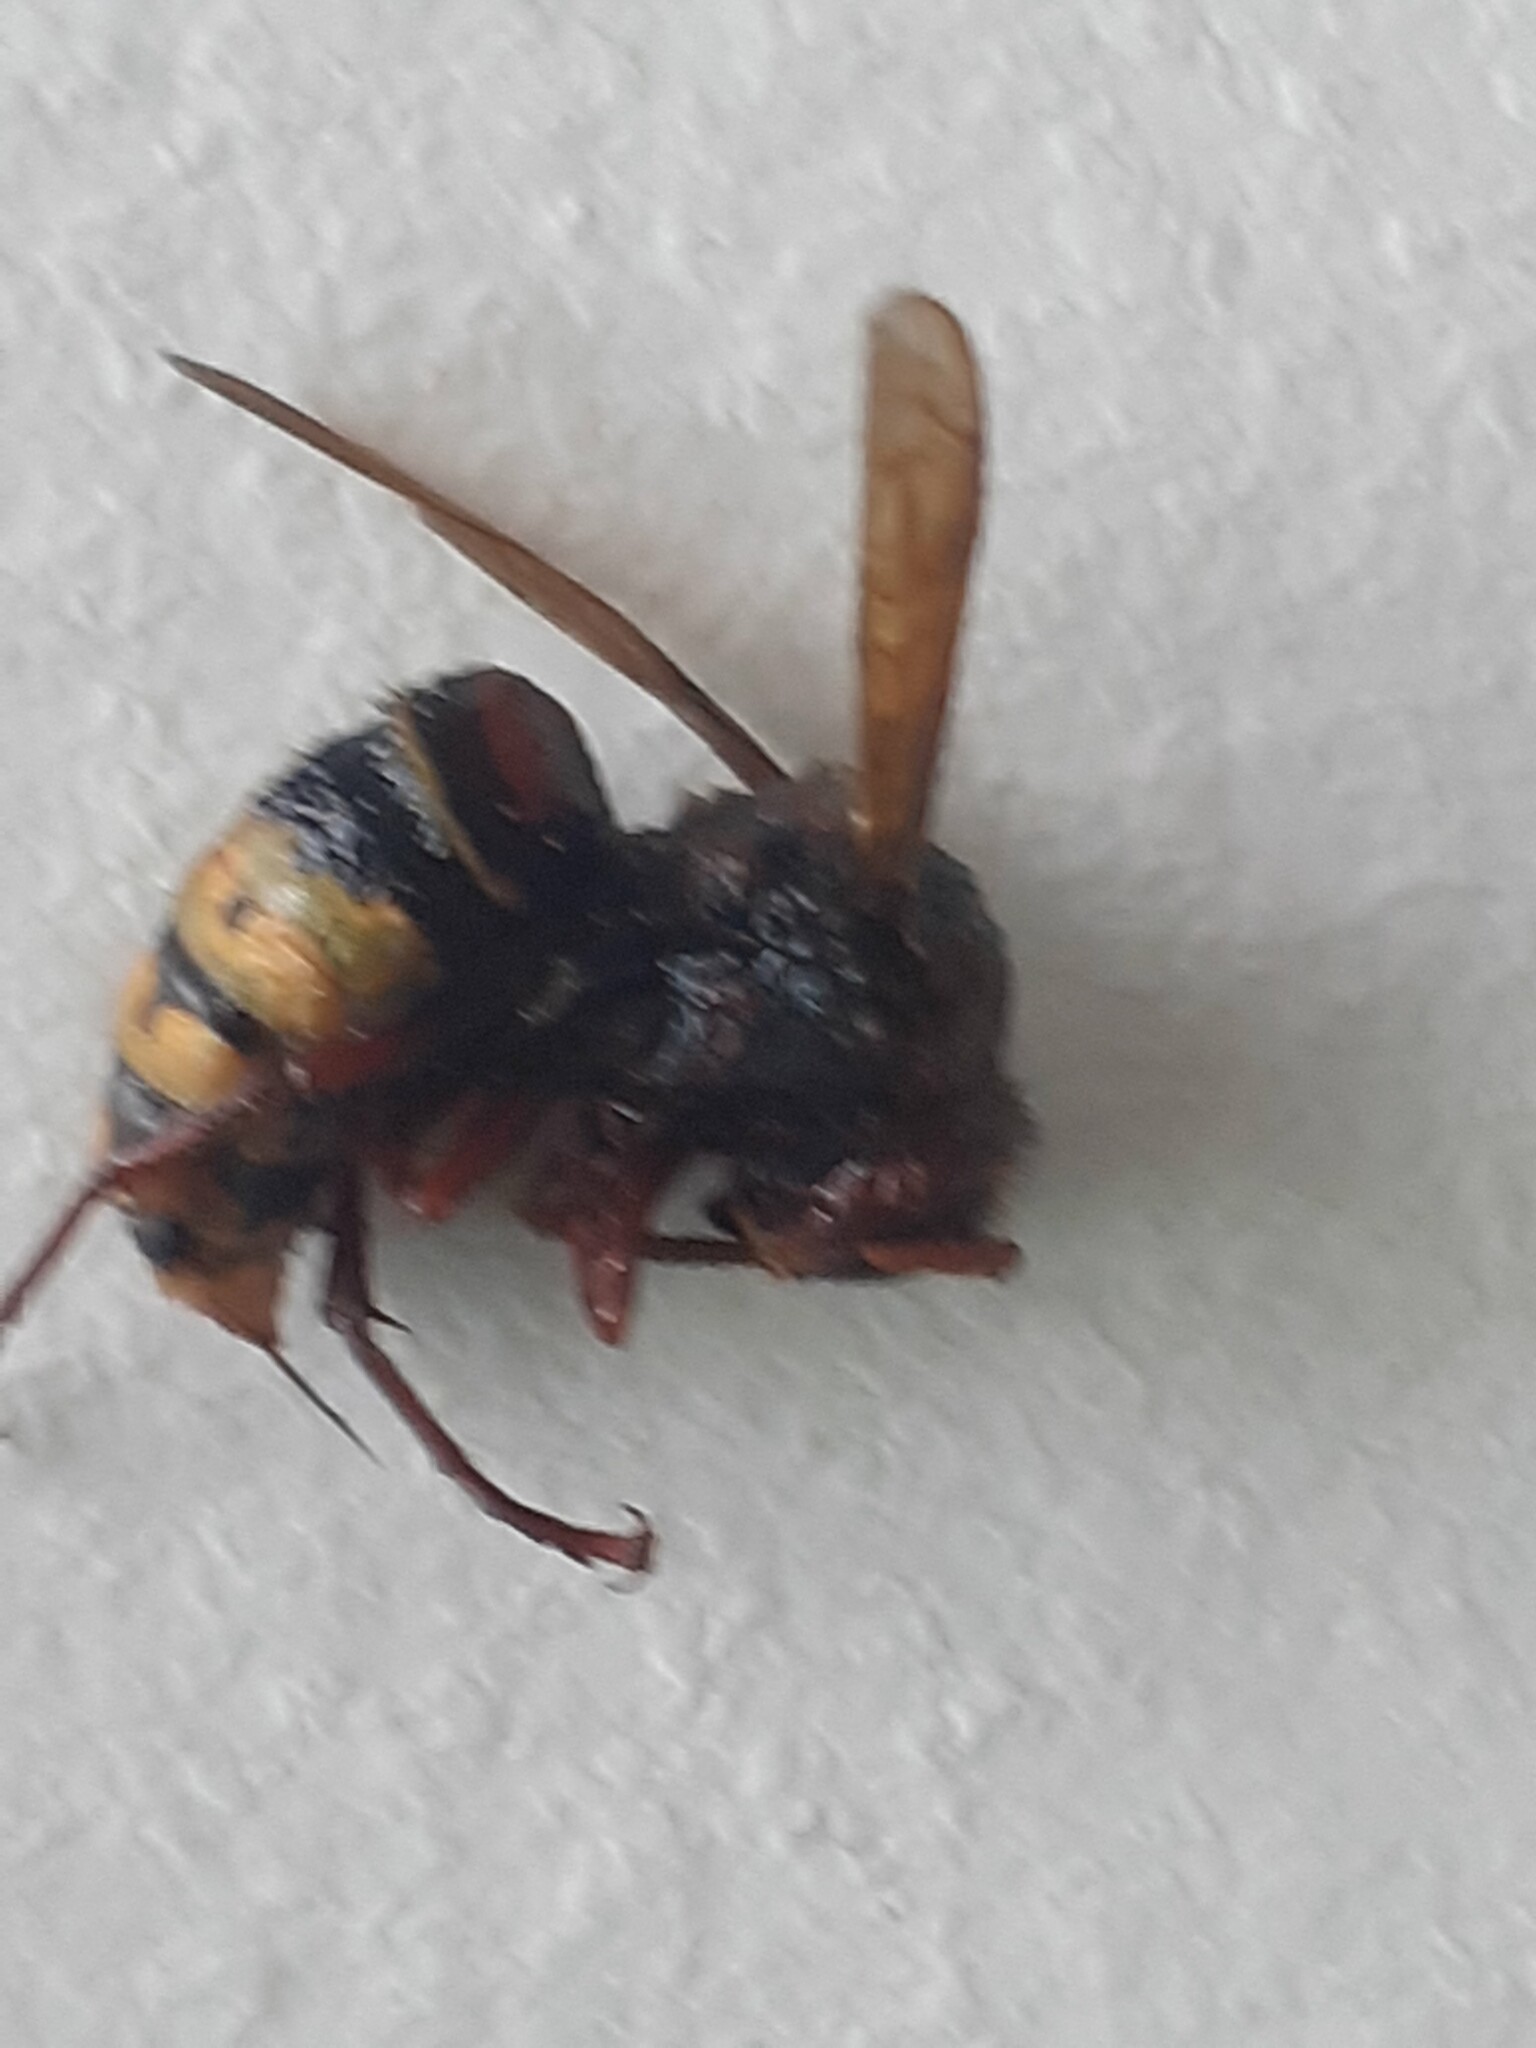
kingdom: Animalia
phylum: Arthropoda
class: Insecta
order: Hymenoptera
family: Vespidae
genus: Vespa
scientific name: Vespa crabro
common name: Hornet
